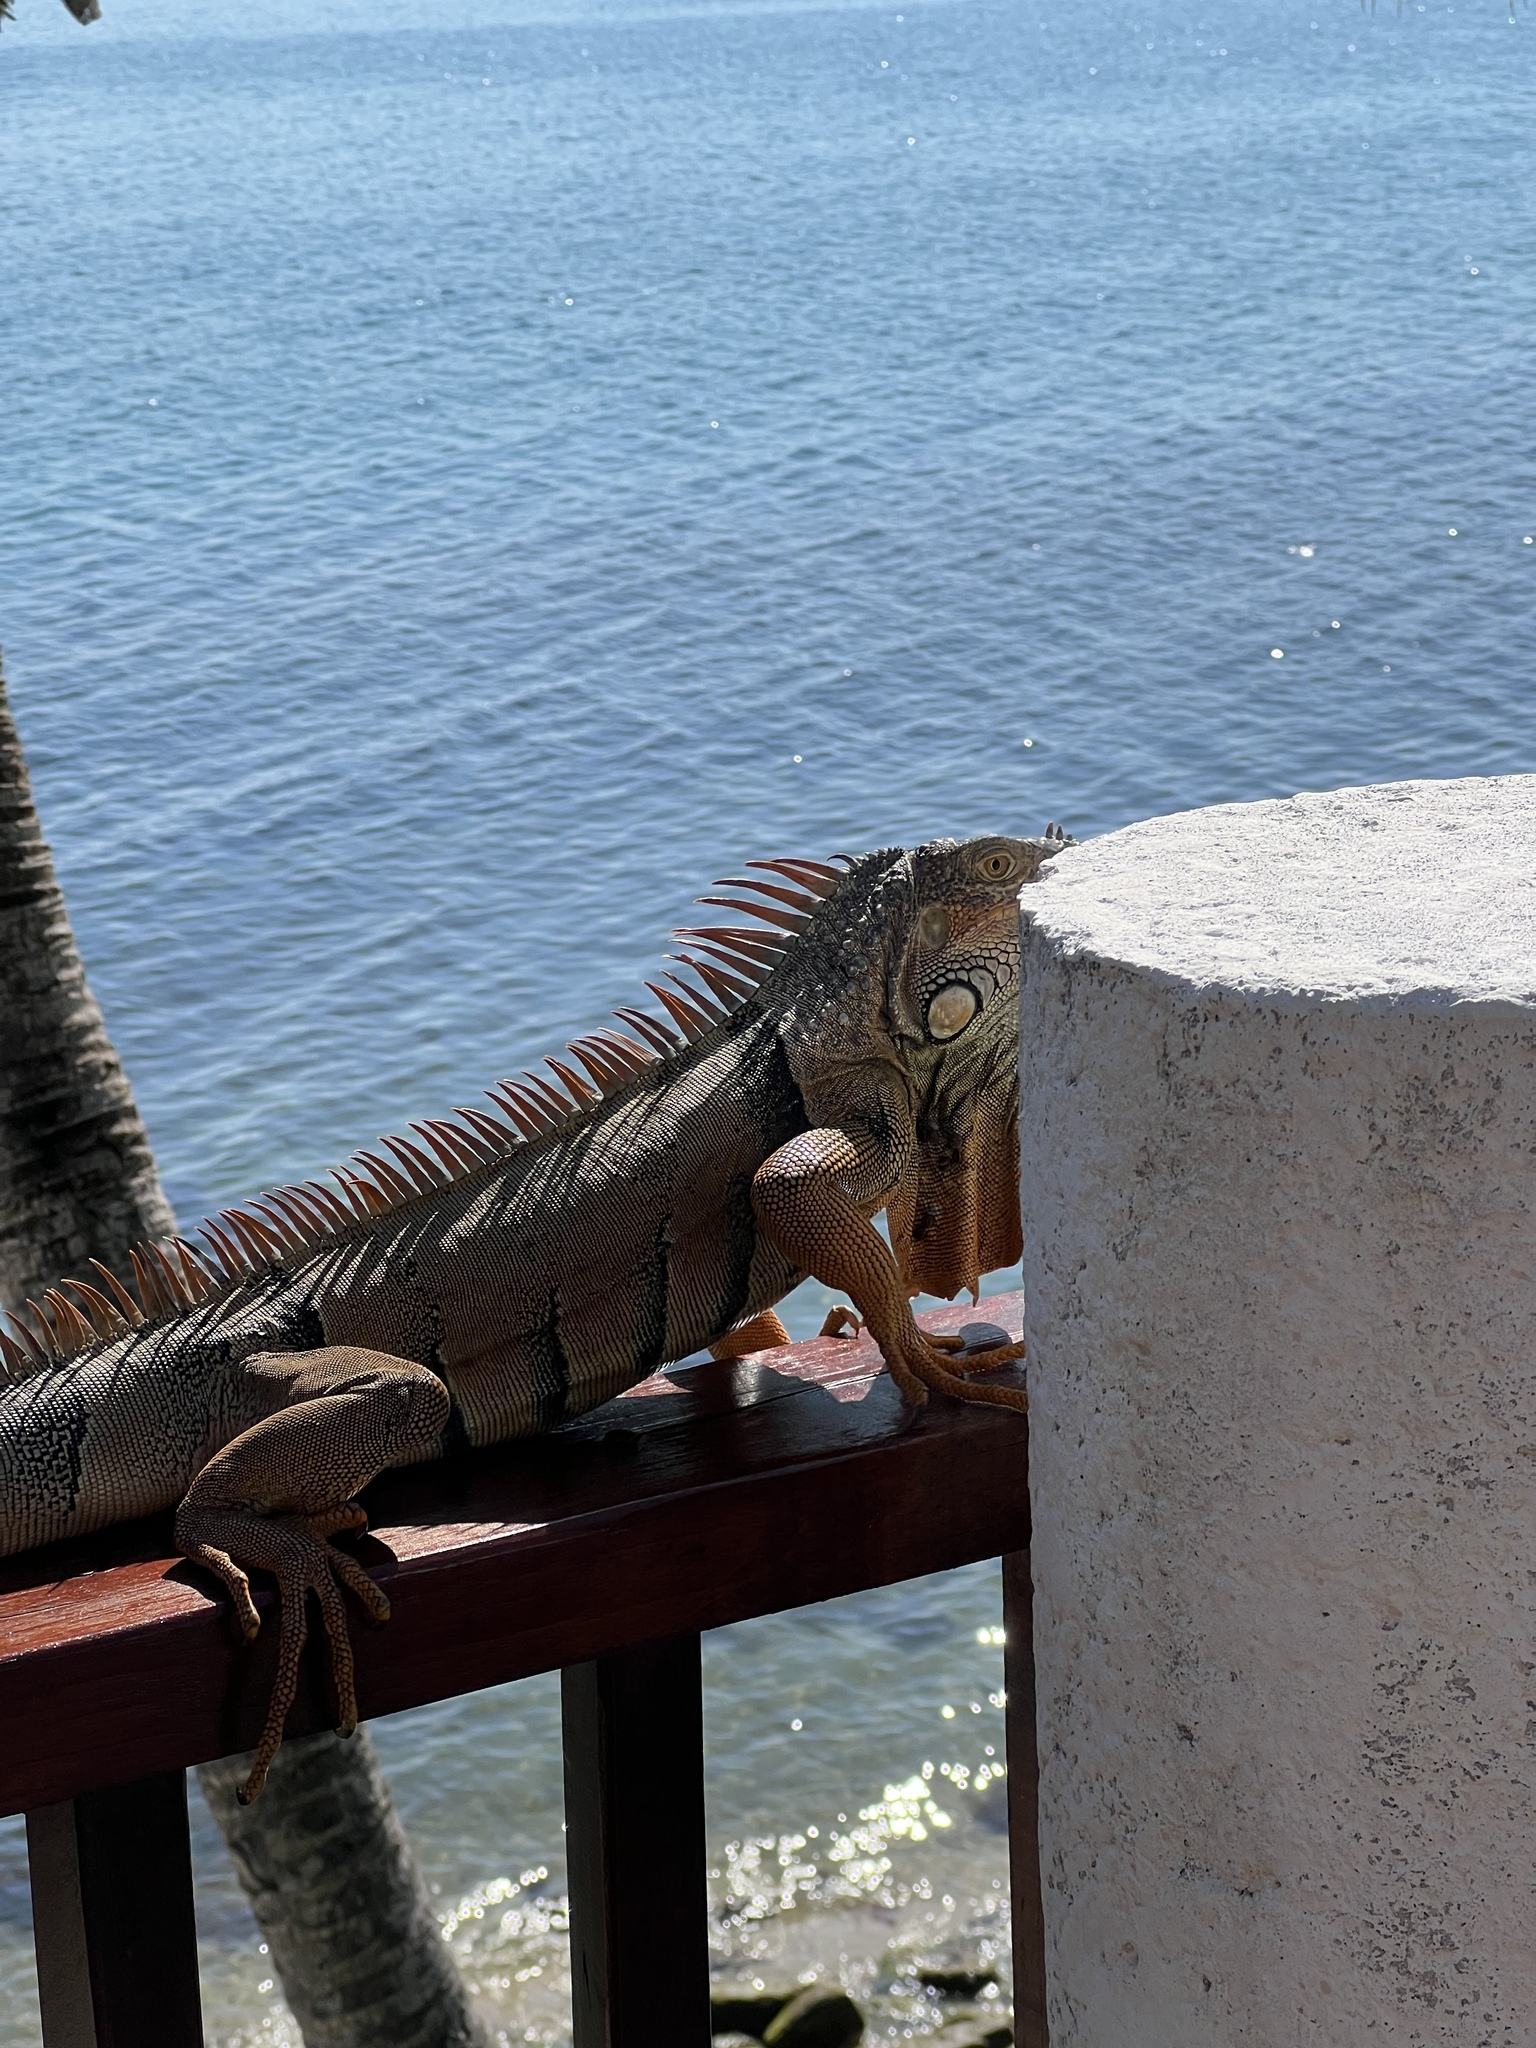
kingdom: Animalia
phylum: Chordata
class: Squamata
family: Iguanidae
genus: Iguana
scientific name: Iguana iguana
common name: Green iguana
